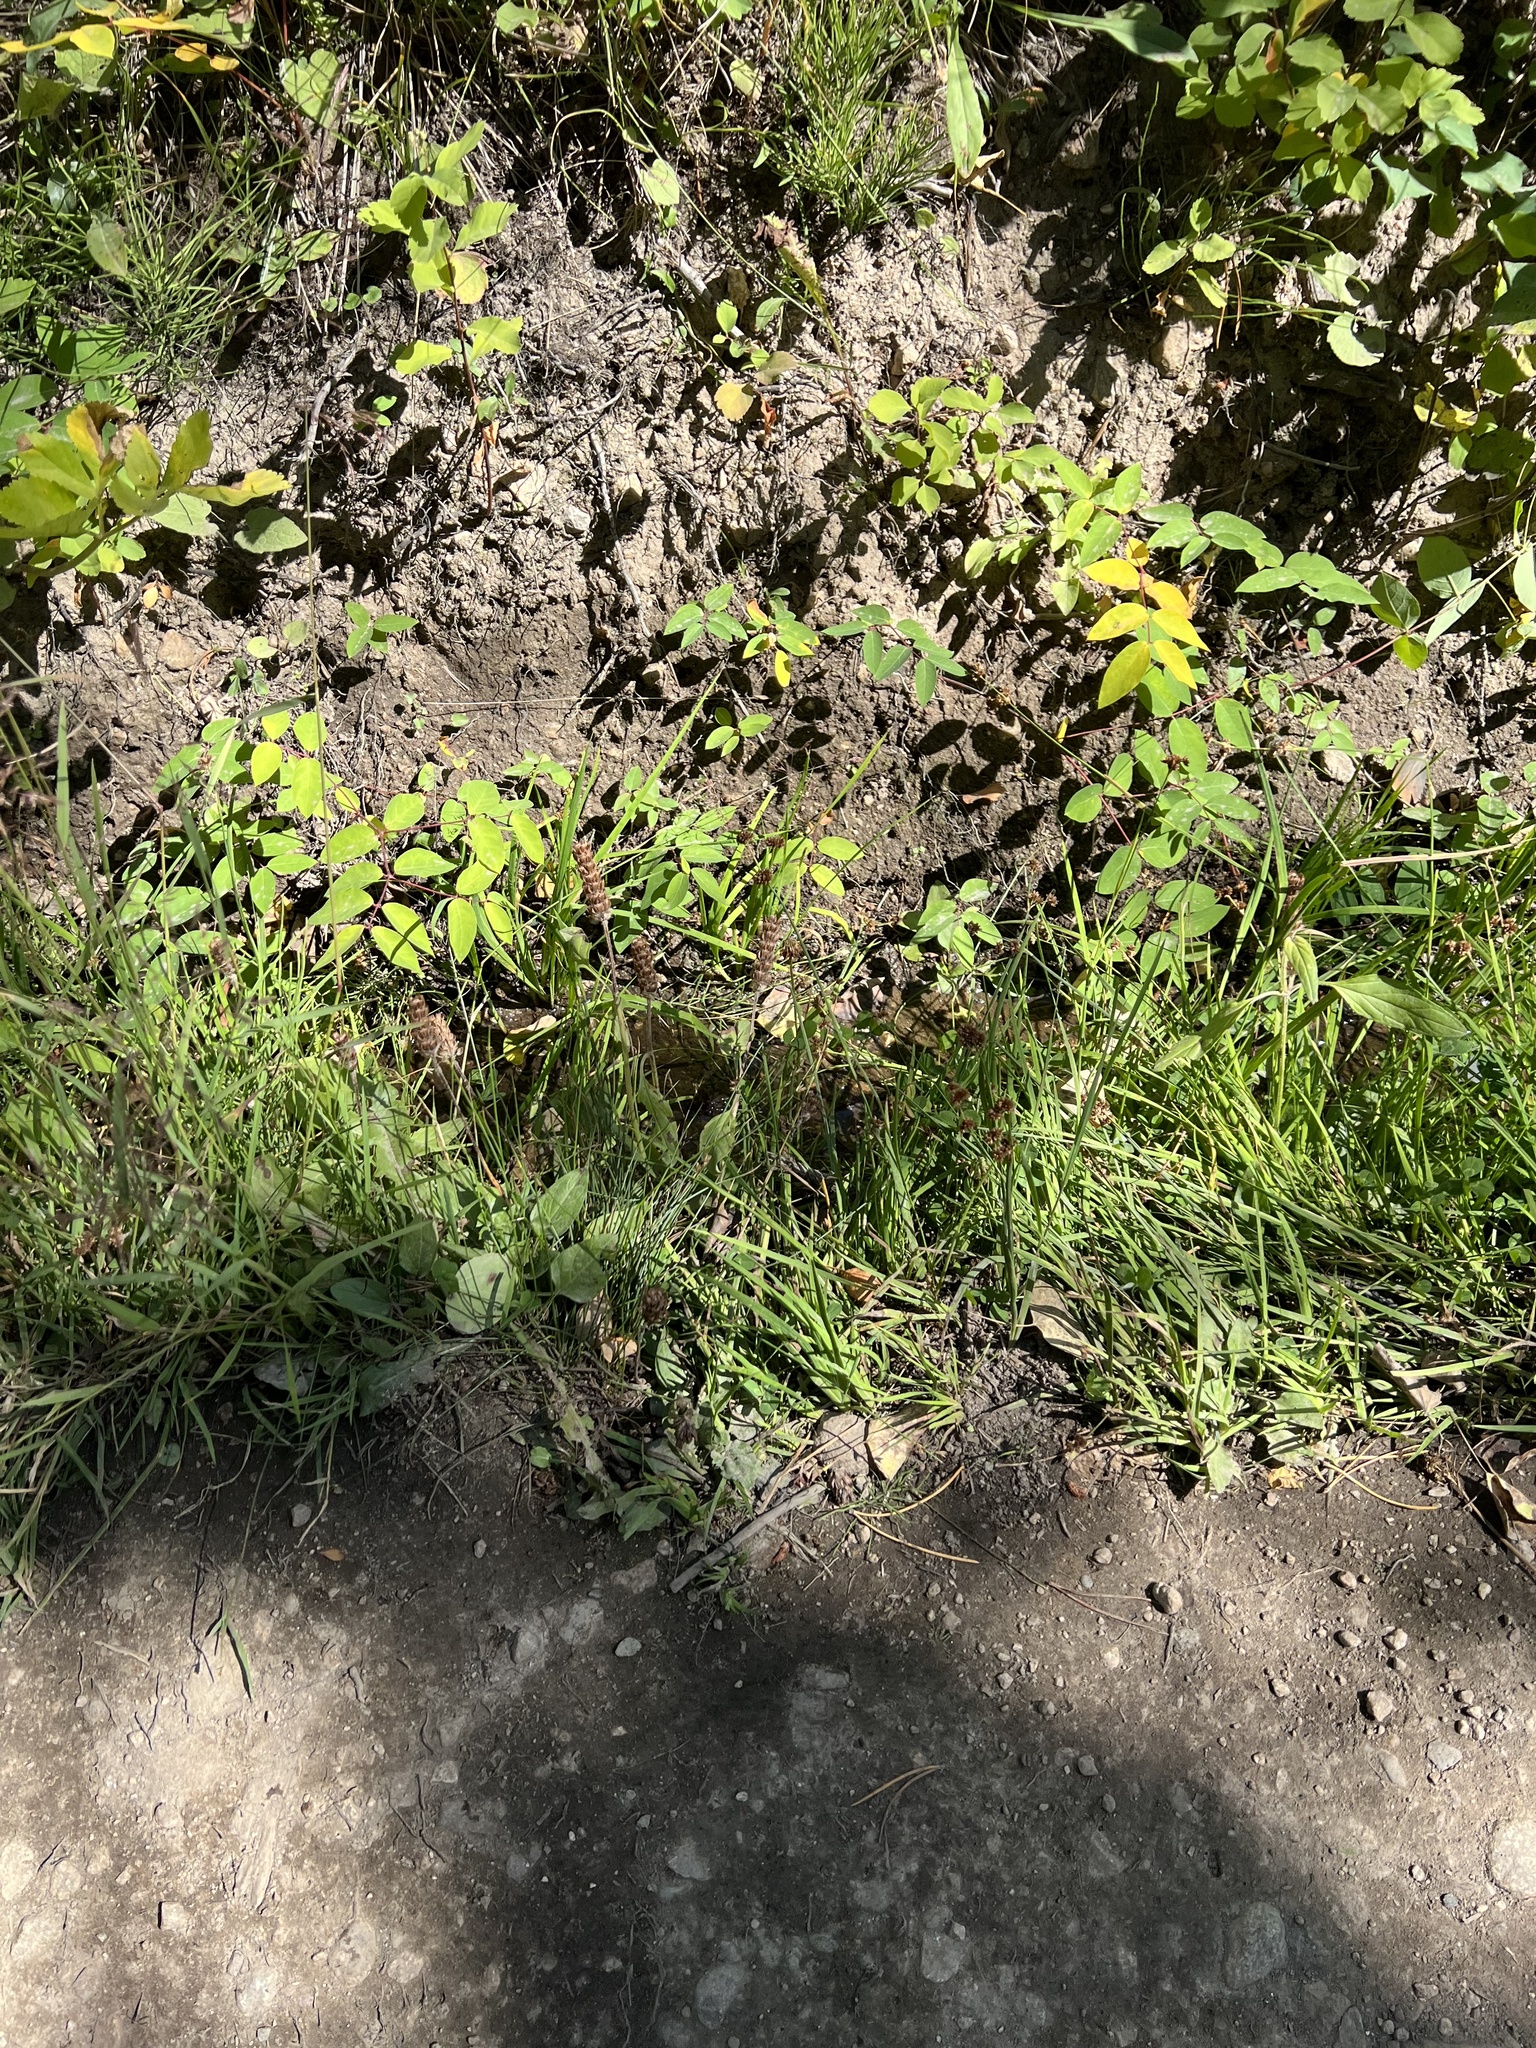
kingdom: Plantae
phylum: Tracheophyta
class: Magnoliopsida
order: Lamiales
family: Lamiaceae
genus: Prunella
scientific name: Prunella vulgaris
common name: Heal-all
